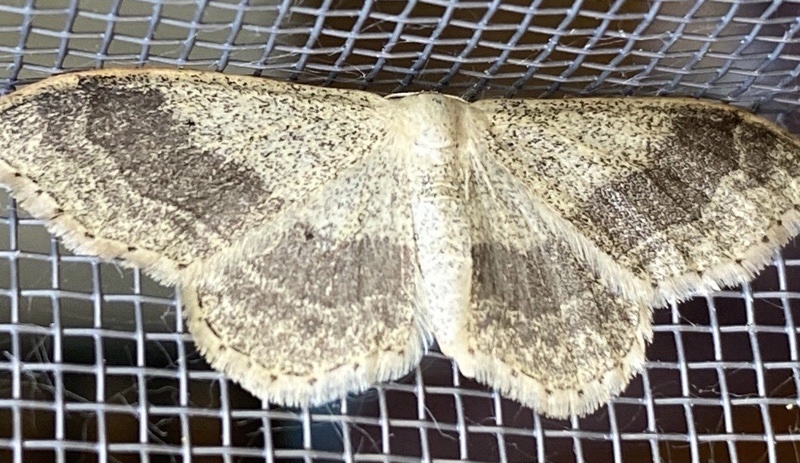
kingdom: Animalia
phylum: Arthropoda
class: Insecta
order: Lepidoptera
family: Geometridae
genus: Idaea
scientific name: Idaea aversata
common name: Riband wave
